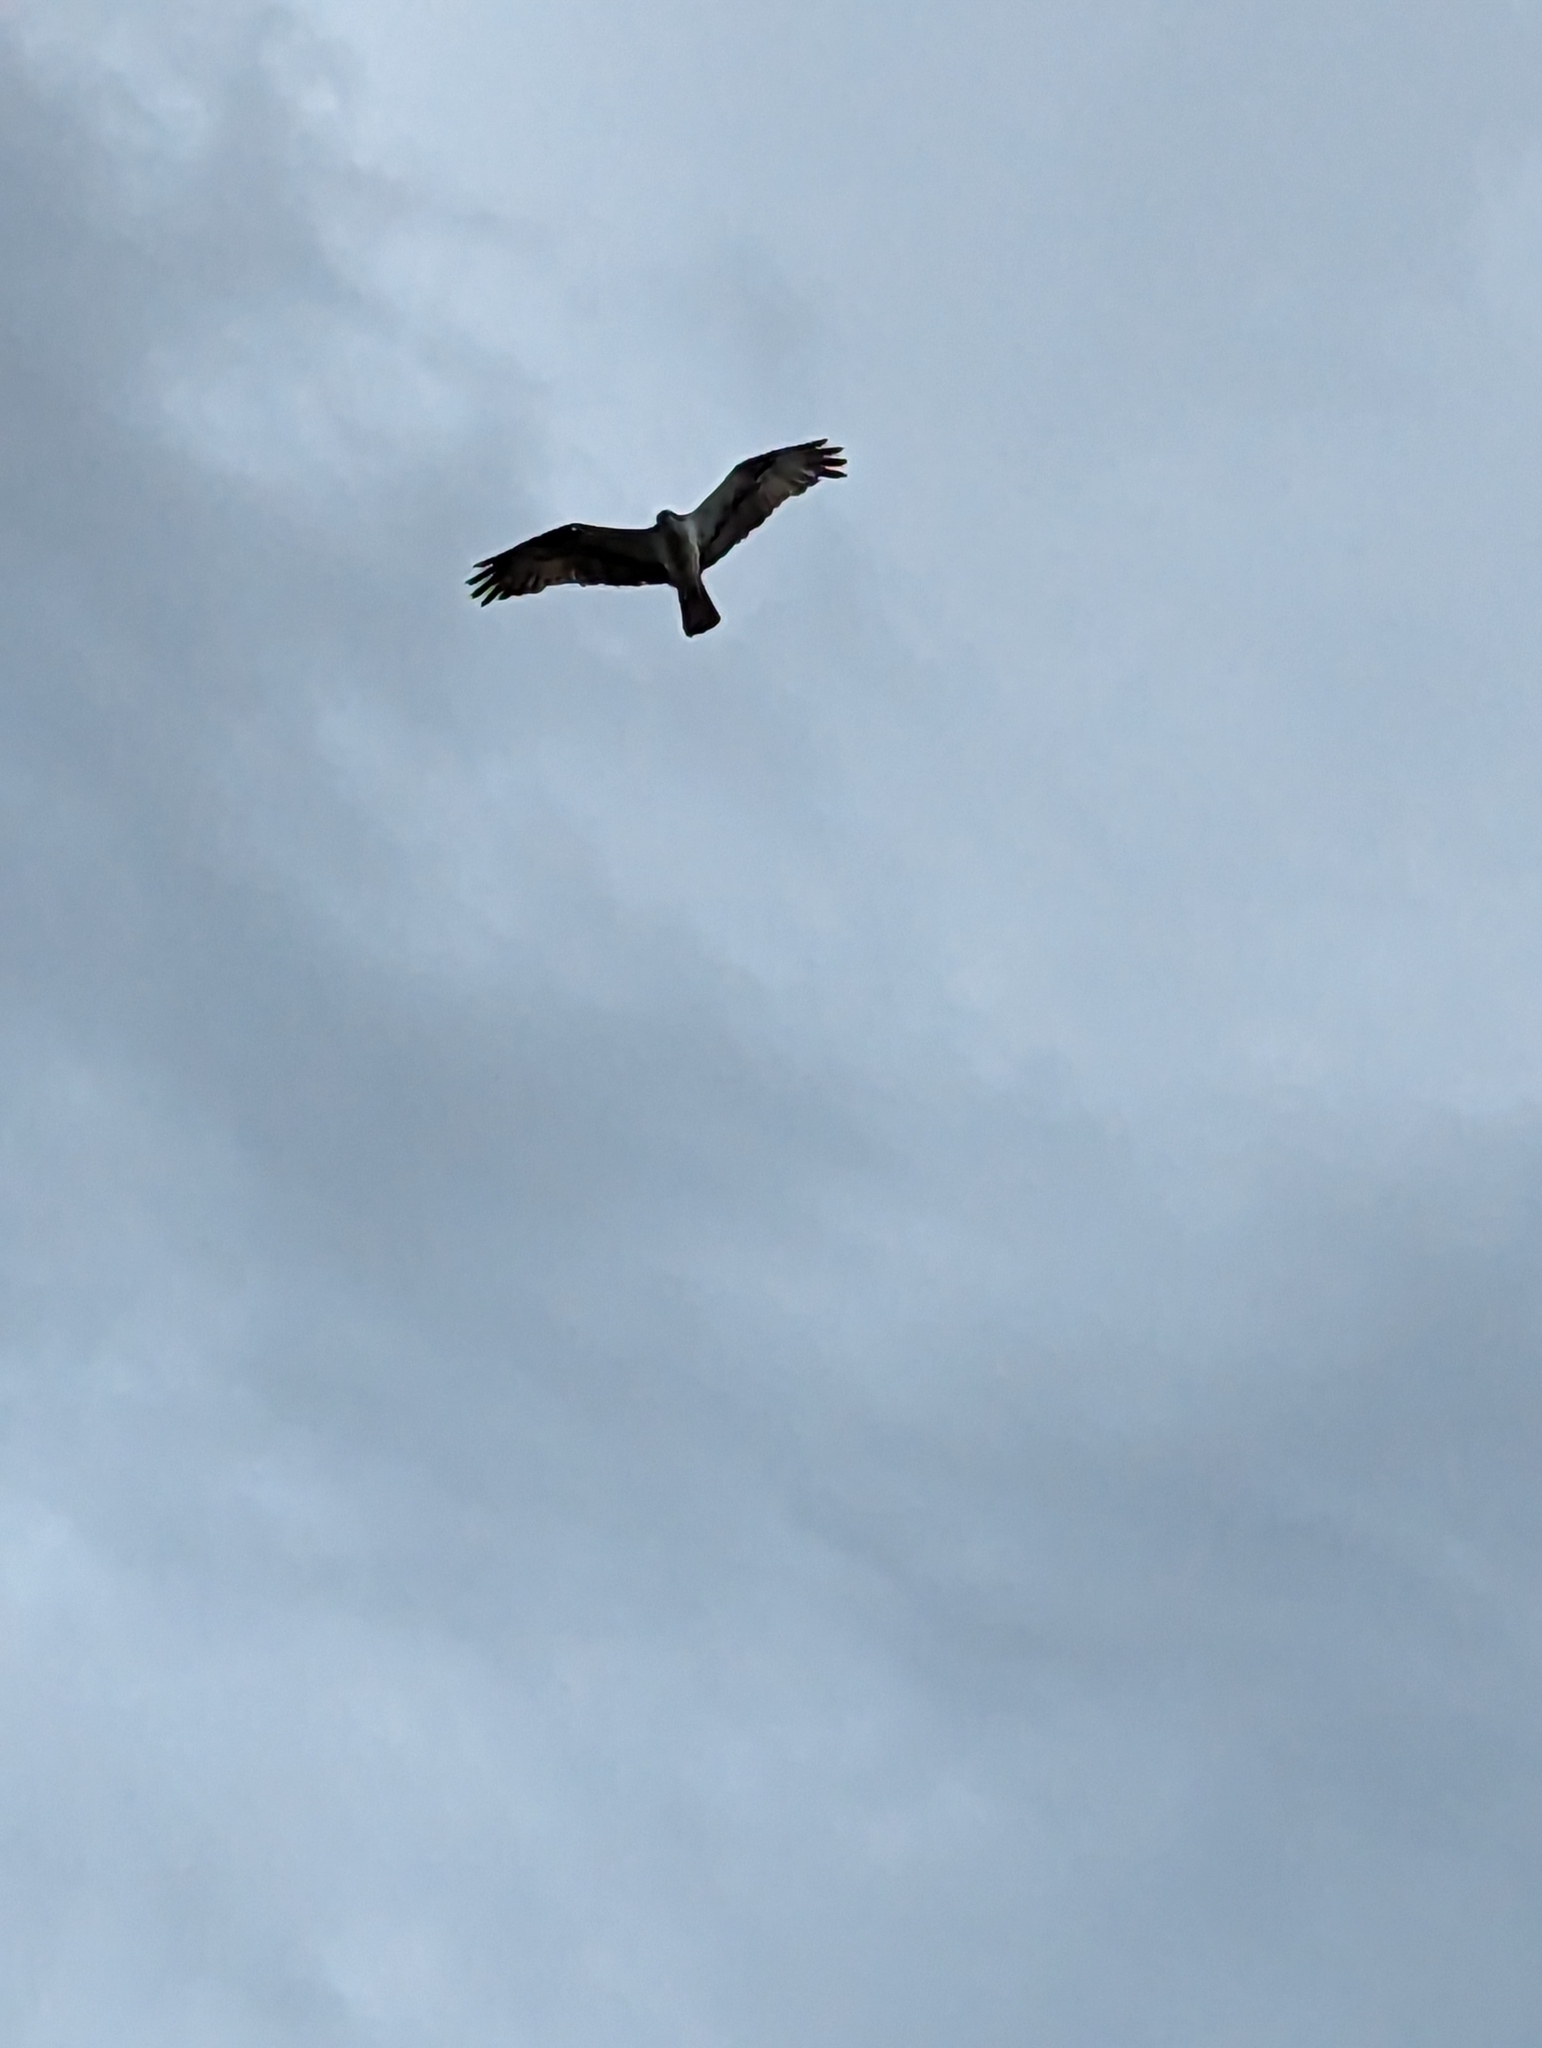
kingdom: Animalia
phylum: Chordata
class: Aves
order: Accipitriformes
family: Pandionidae
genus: Pandion
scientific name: Pandion haliaetus
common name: Osprey
